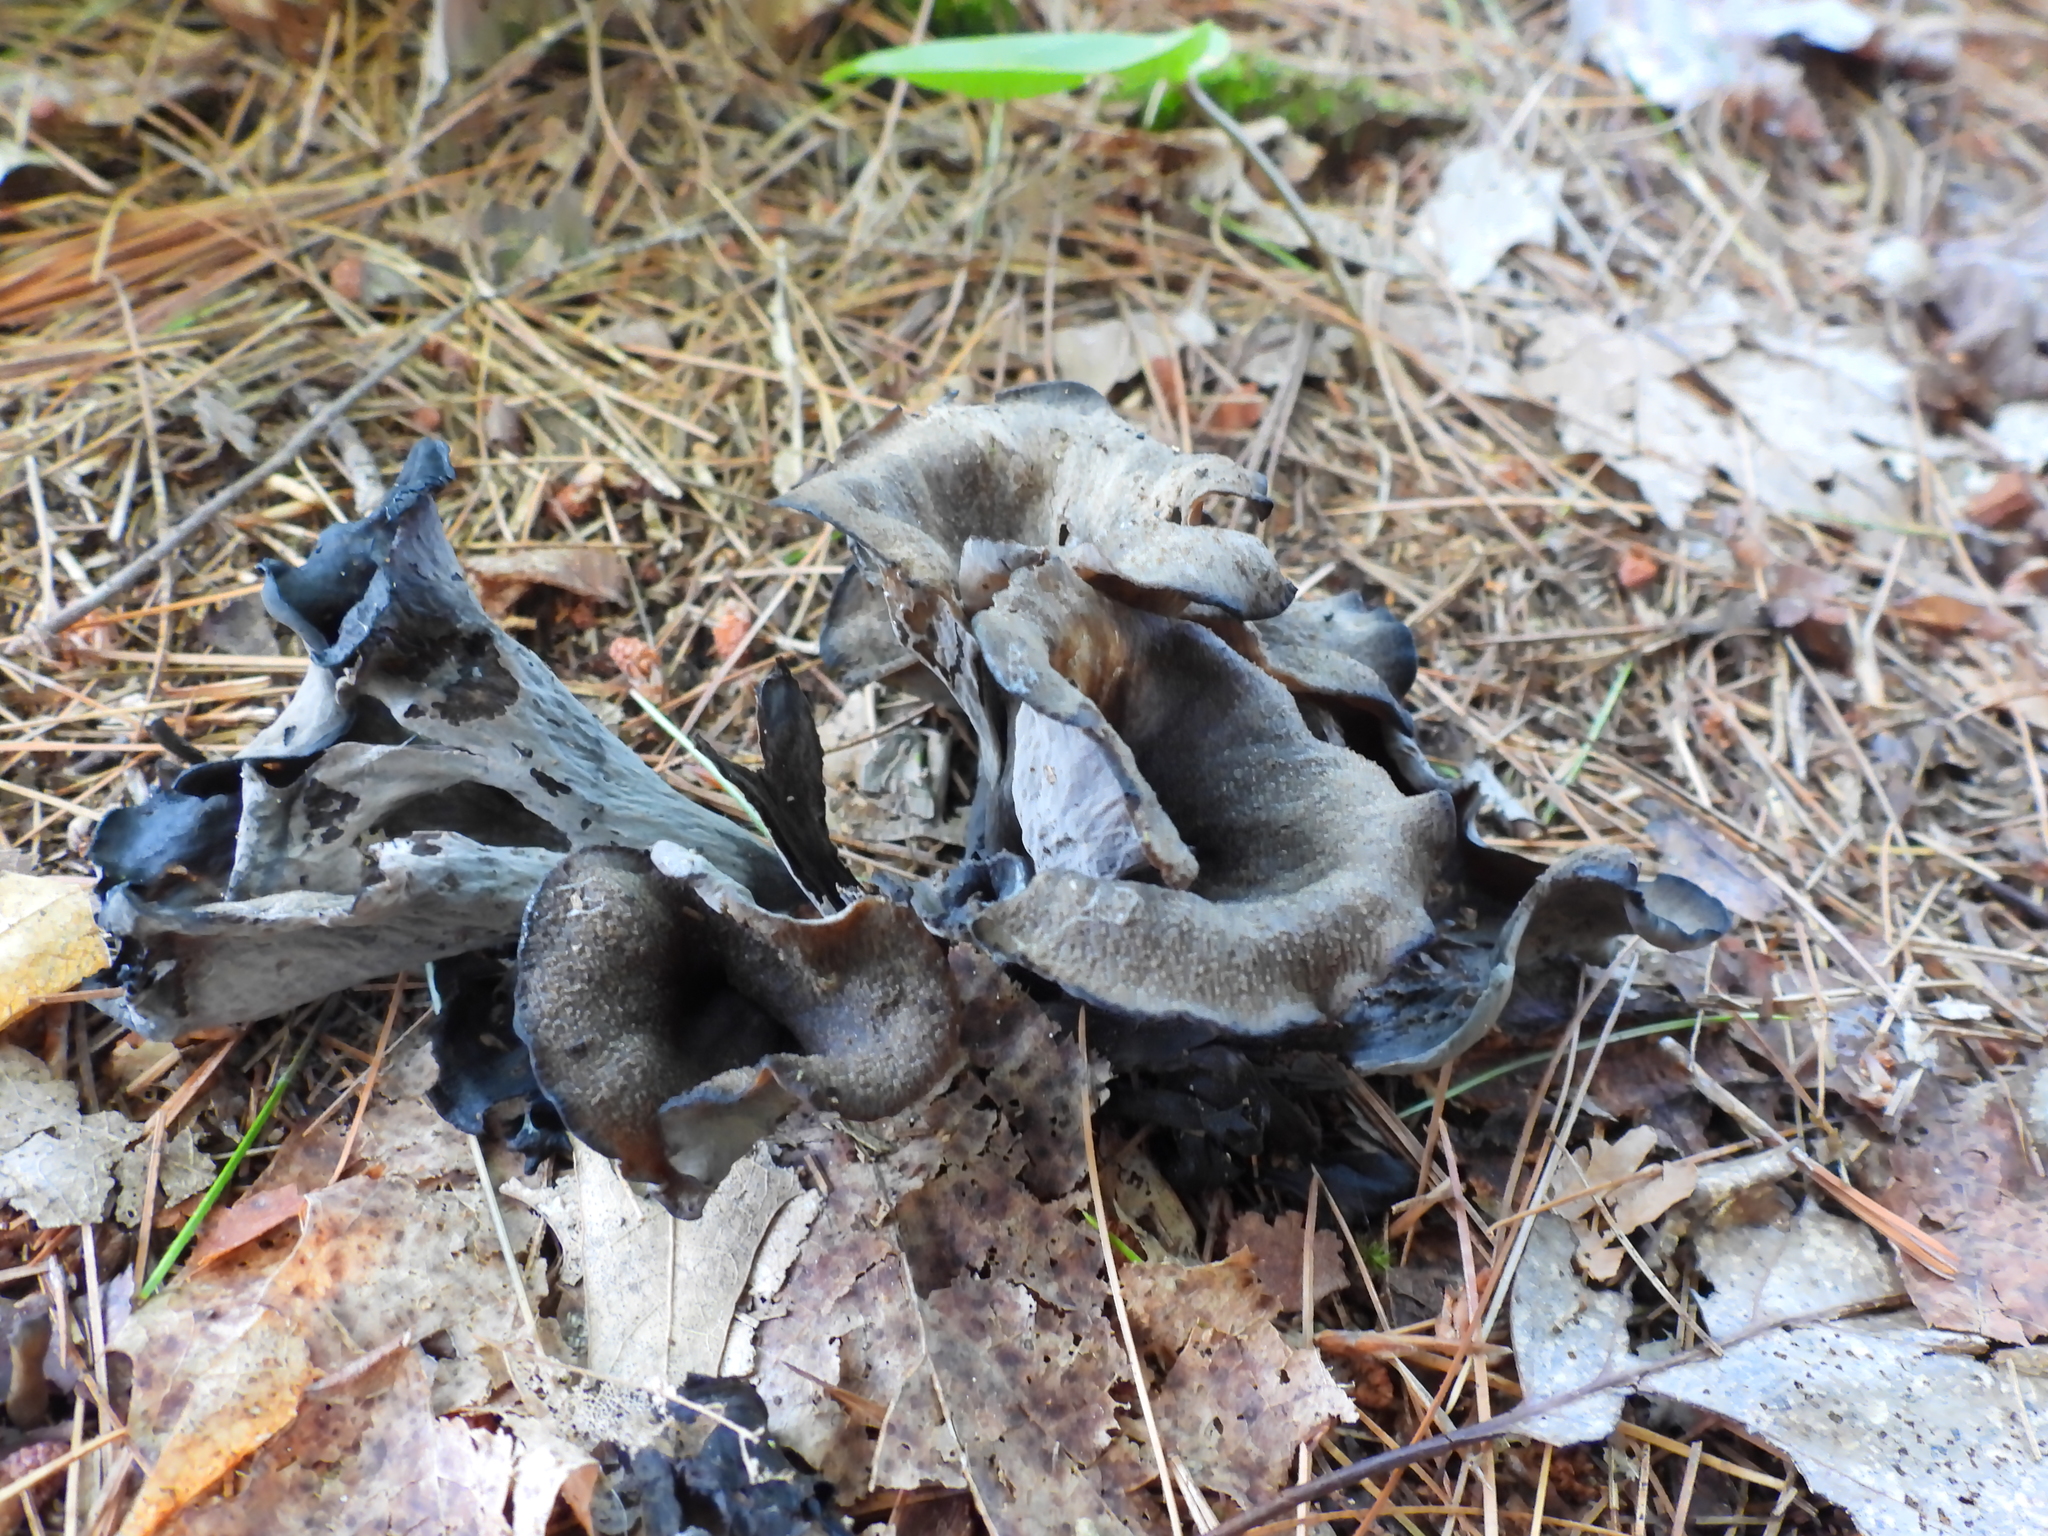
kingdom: Fungi
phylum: Basidiomycota
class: Agaricomycetes
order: Cantharellales
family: Hydnaceae
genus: Craterellus
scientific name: Craterellus cornucopioides
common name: Horn of plenty
